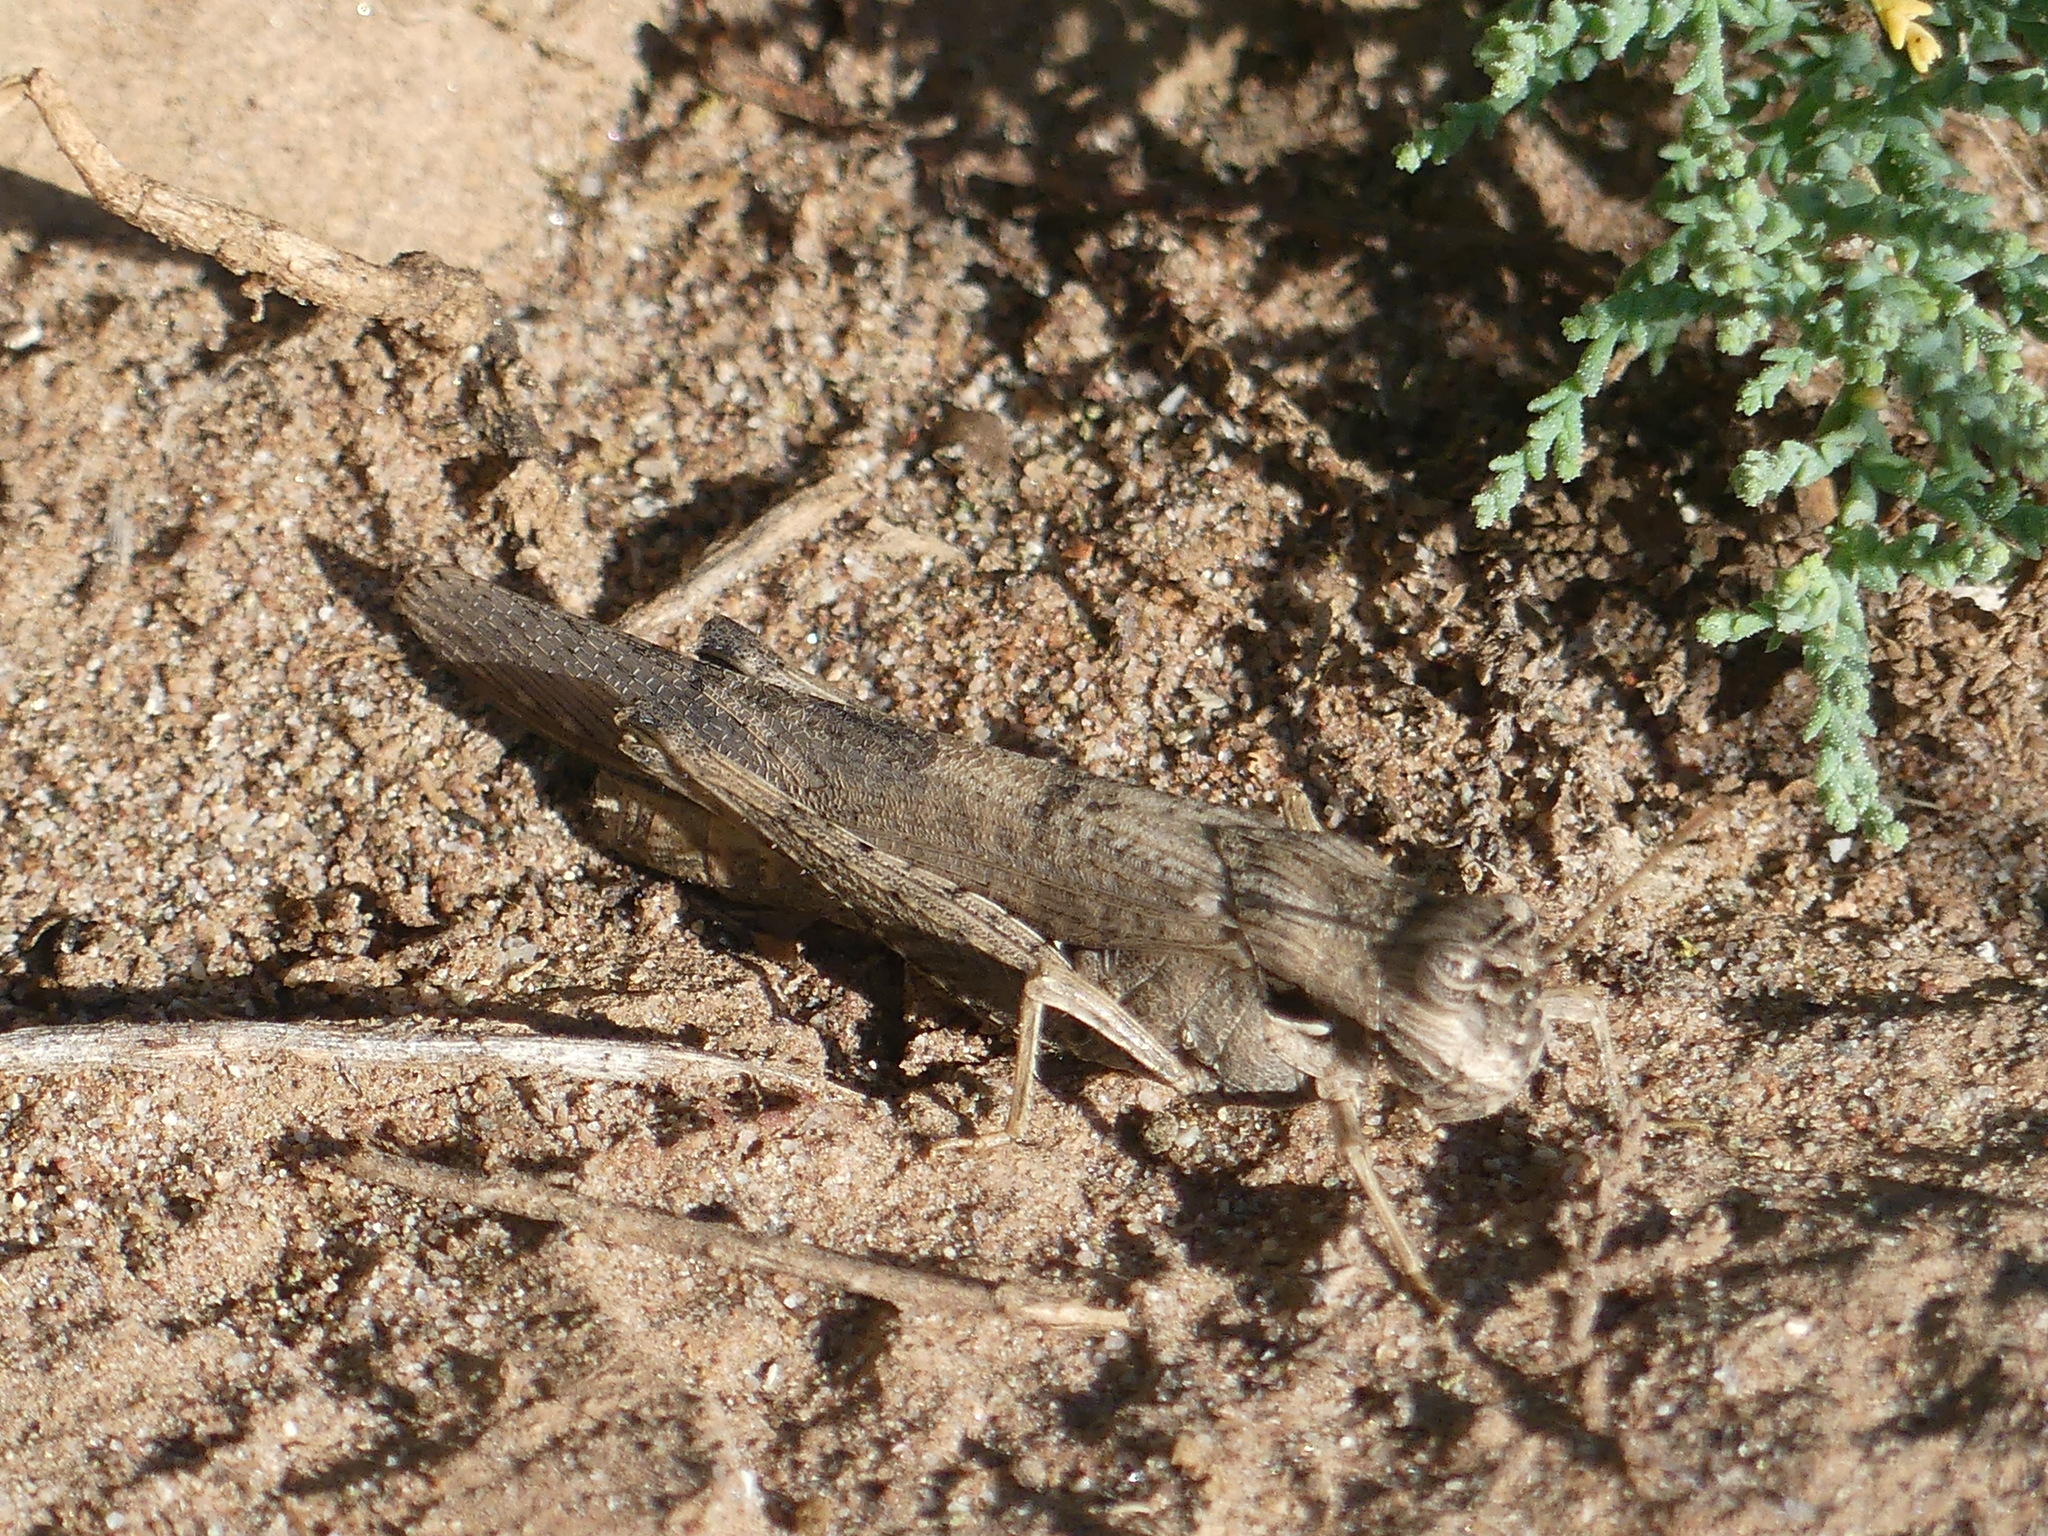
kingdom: Animalia
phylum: Arthropoda
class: Insecta
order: Orthoptera
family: Acrididae
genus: Morphacris
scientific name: Morphacris fasciata
